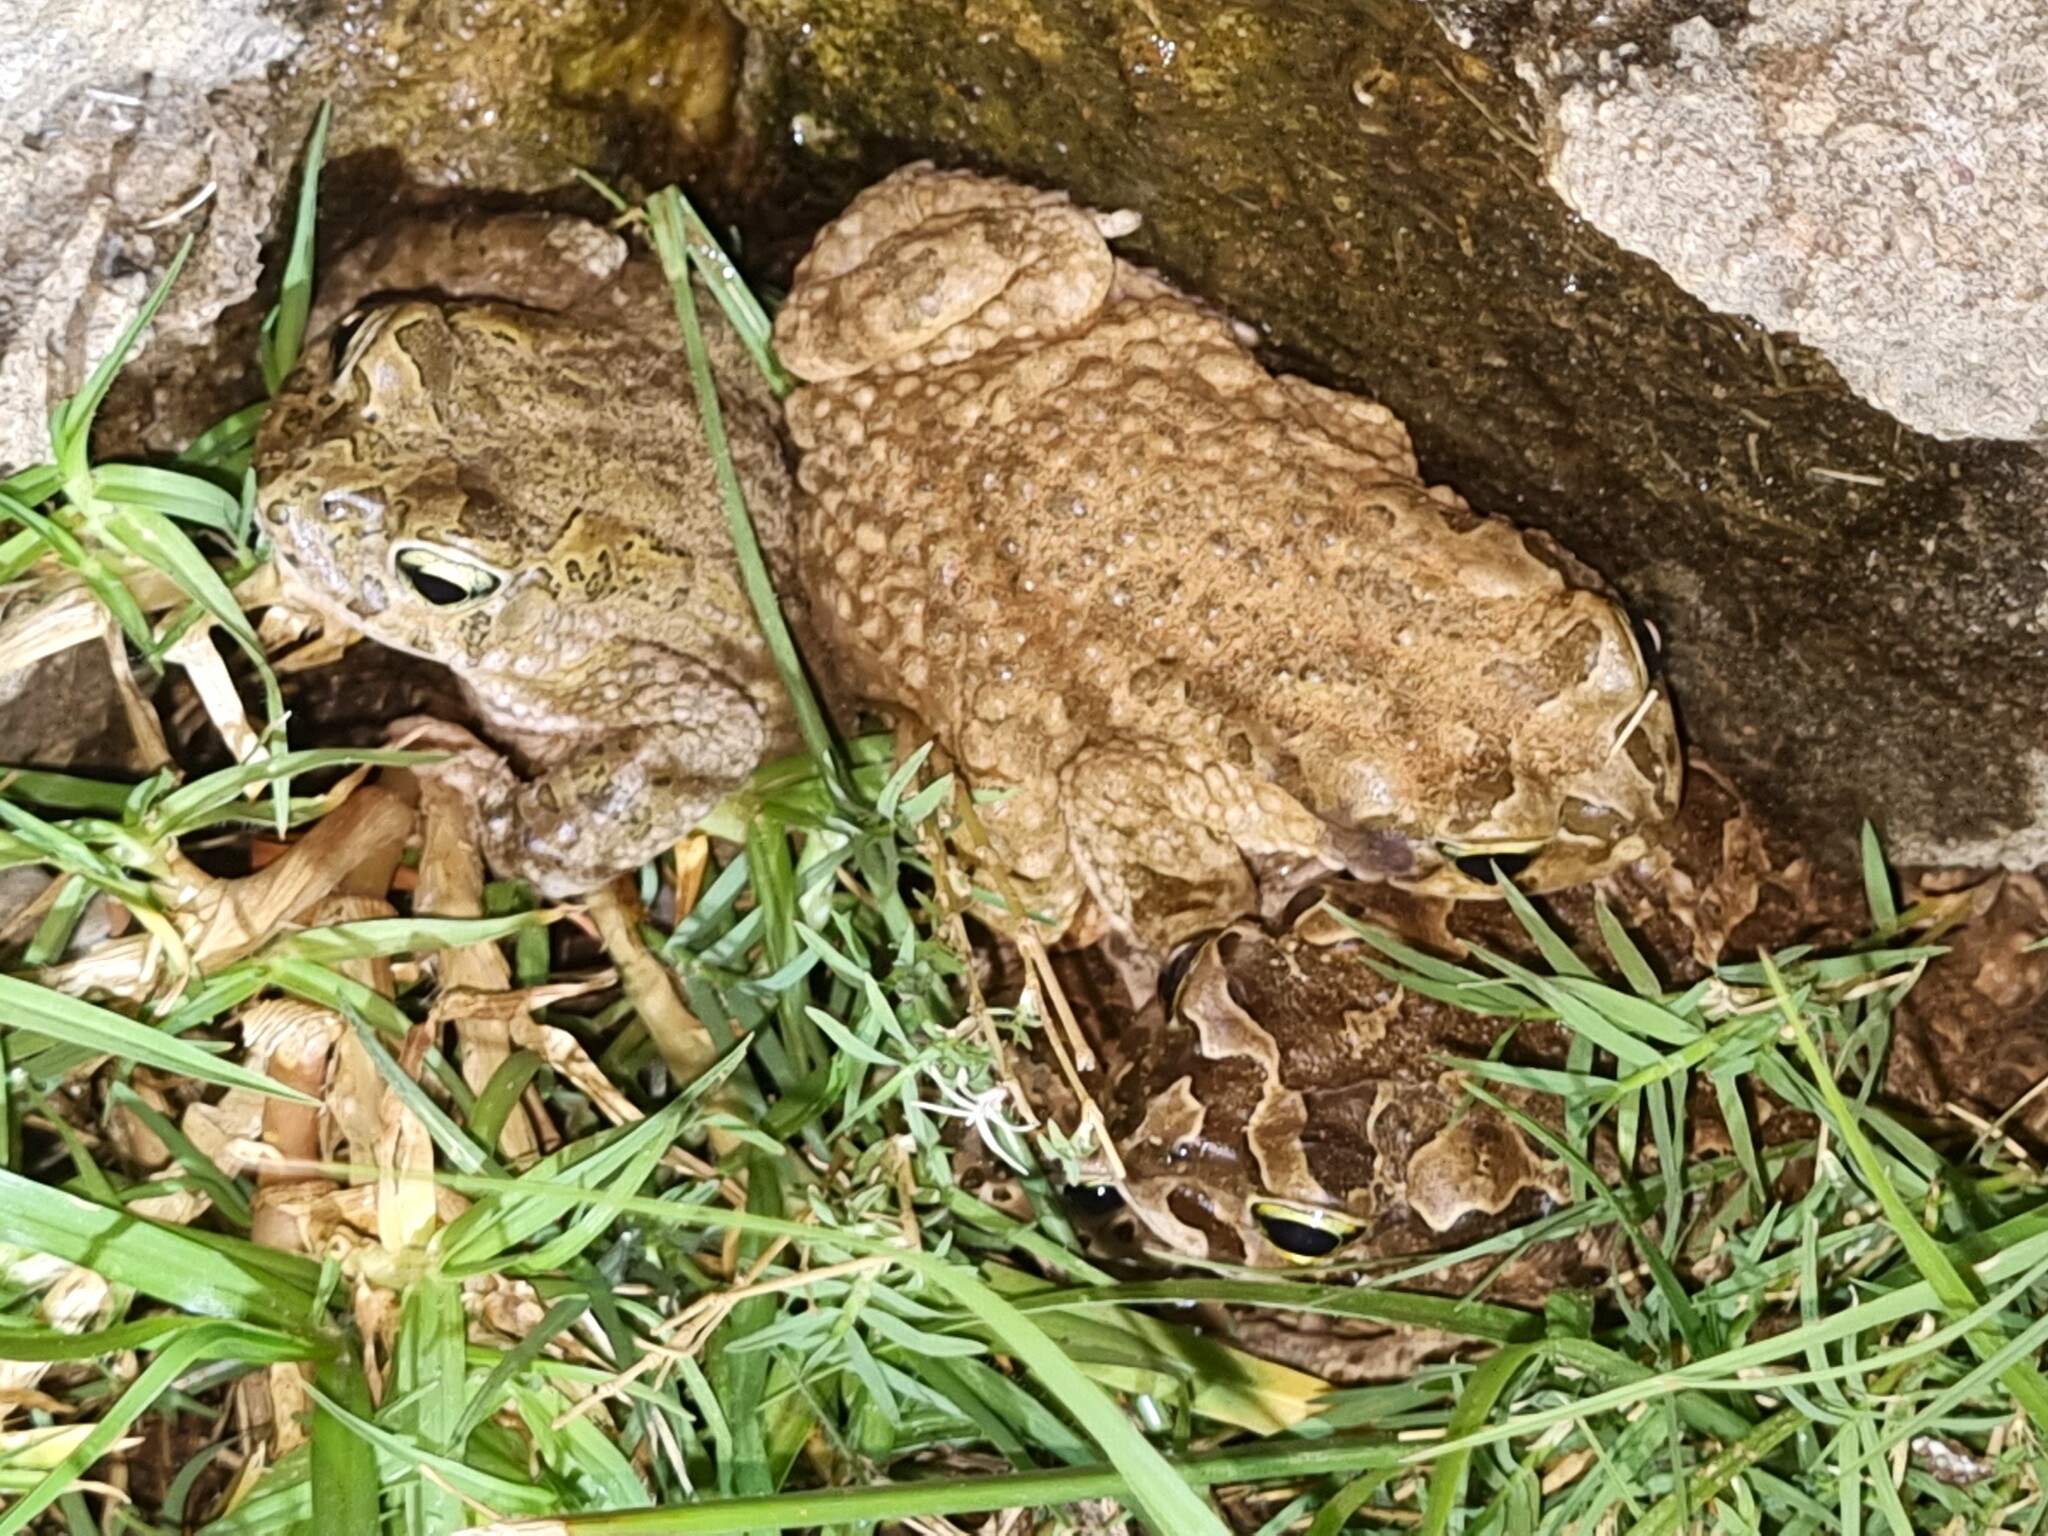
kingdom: Animalia
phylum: Chordata
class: Amphibia
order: Anura
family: Bufonidae
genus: Vandijkophrynus
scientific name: Vandijkophrynus gariepensis
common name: Gariep toad
